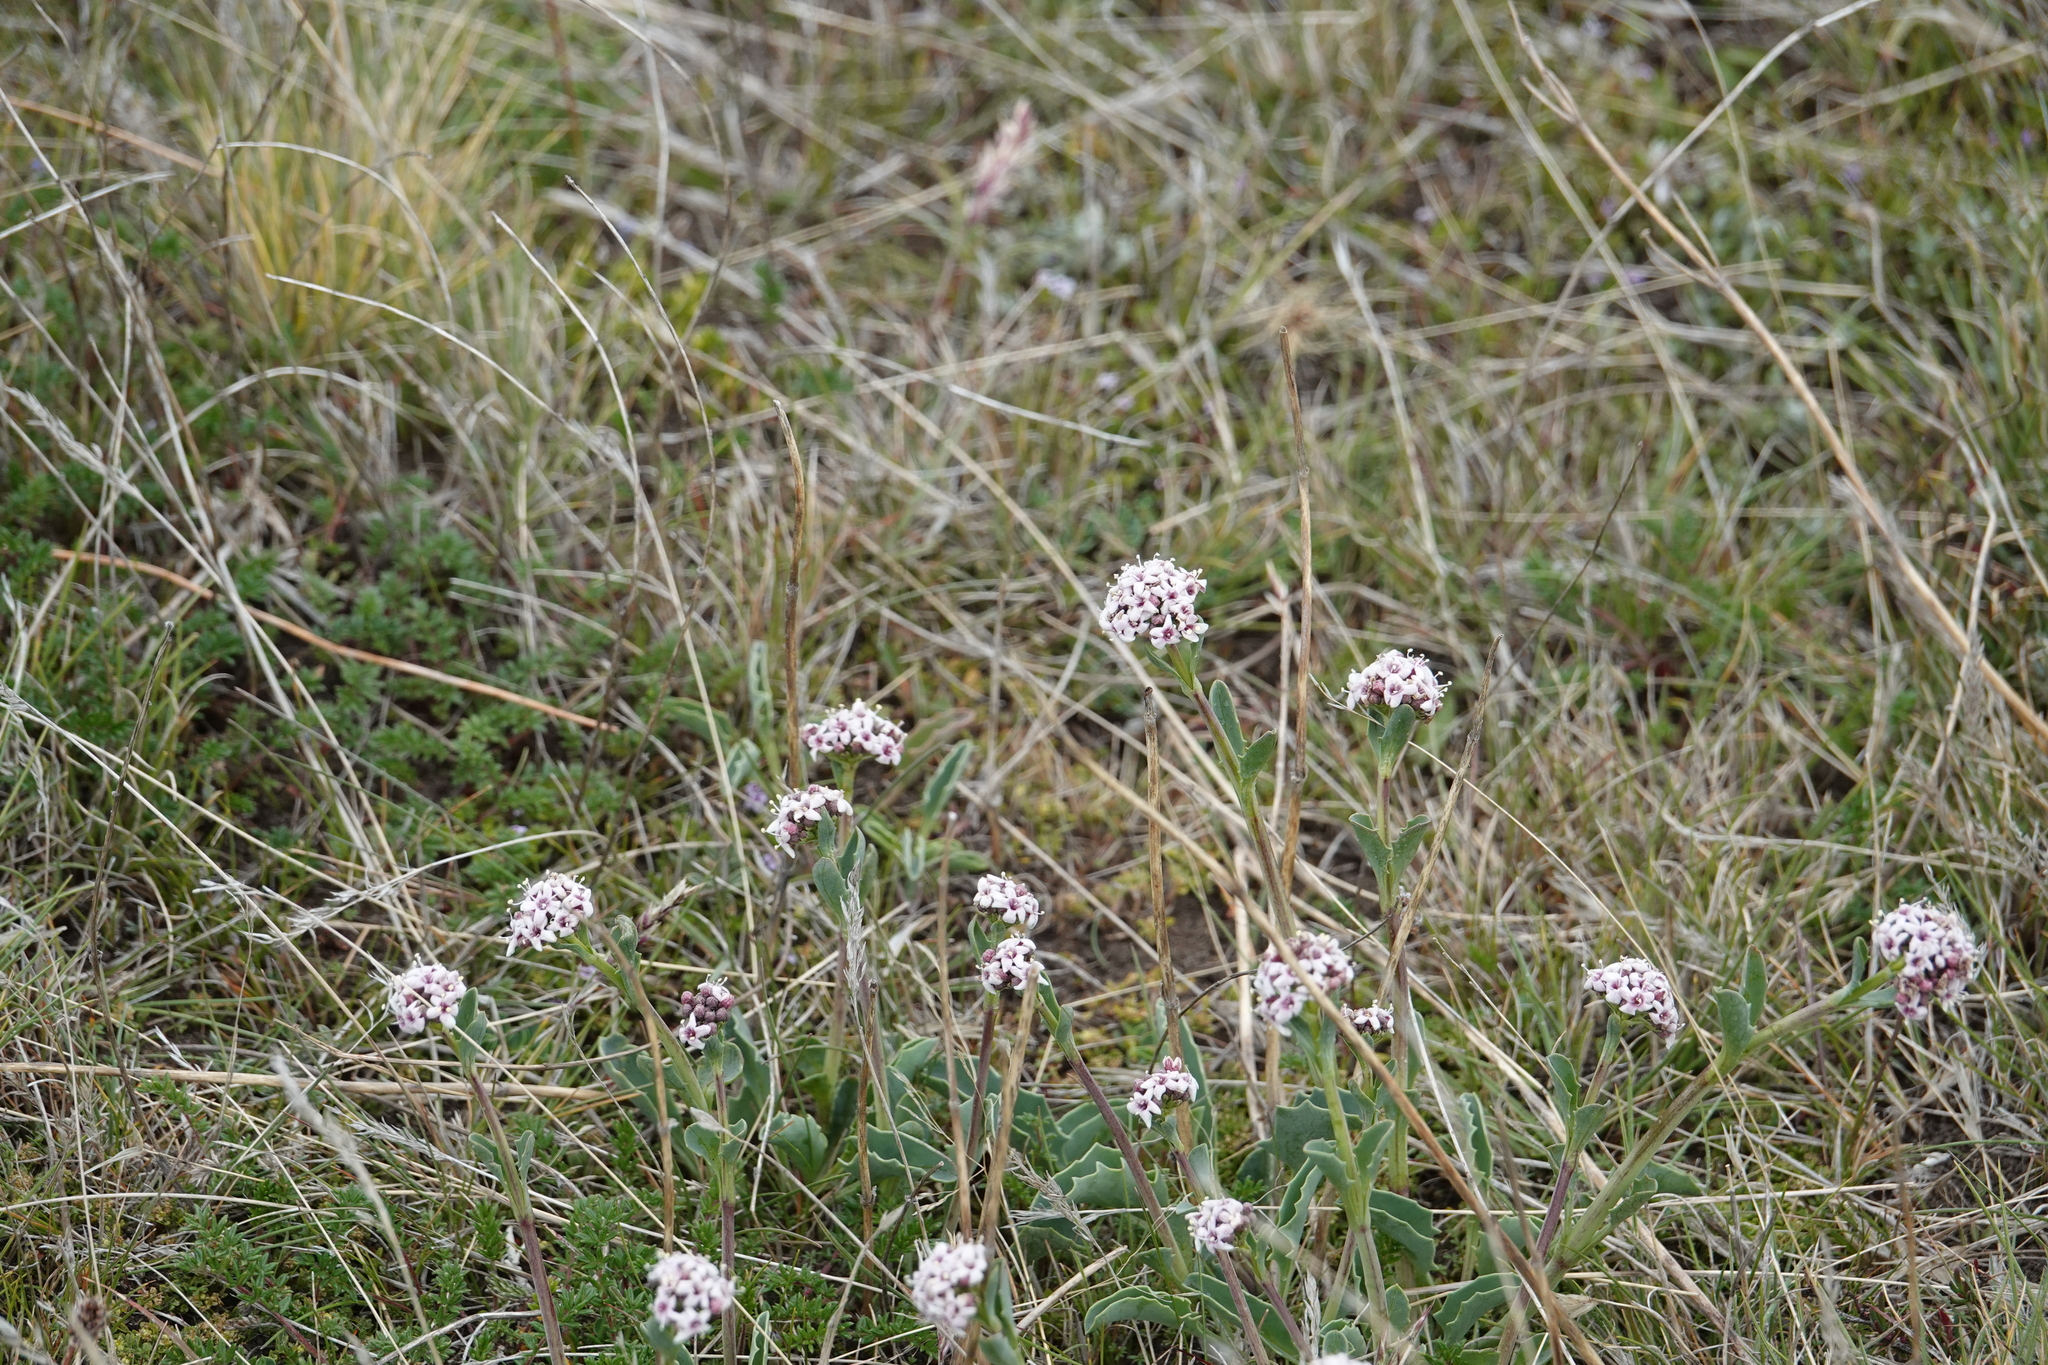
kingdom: Plantae
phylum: Tracheophyta
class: Magnoliopsida
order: Dipsacales
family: Caprifoliaceae
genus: Valeriana
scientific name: Valeriana carnosa
